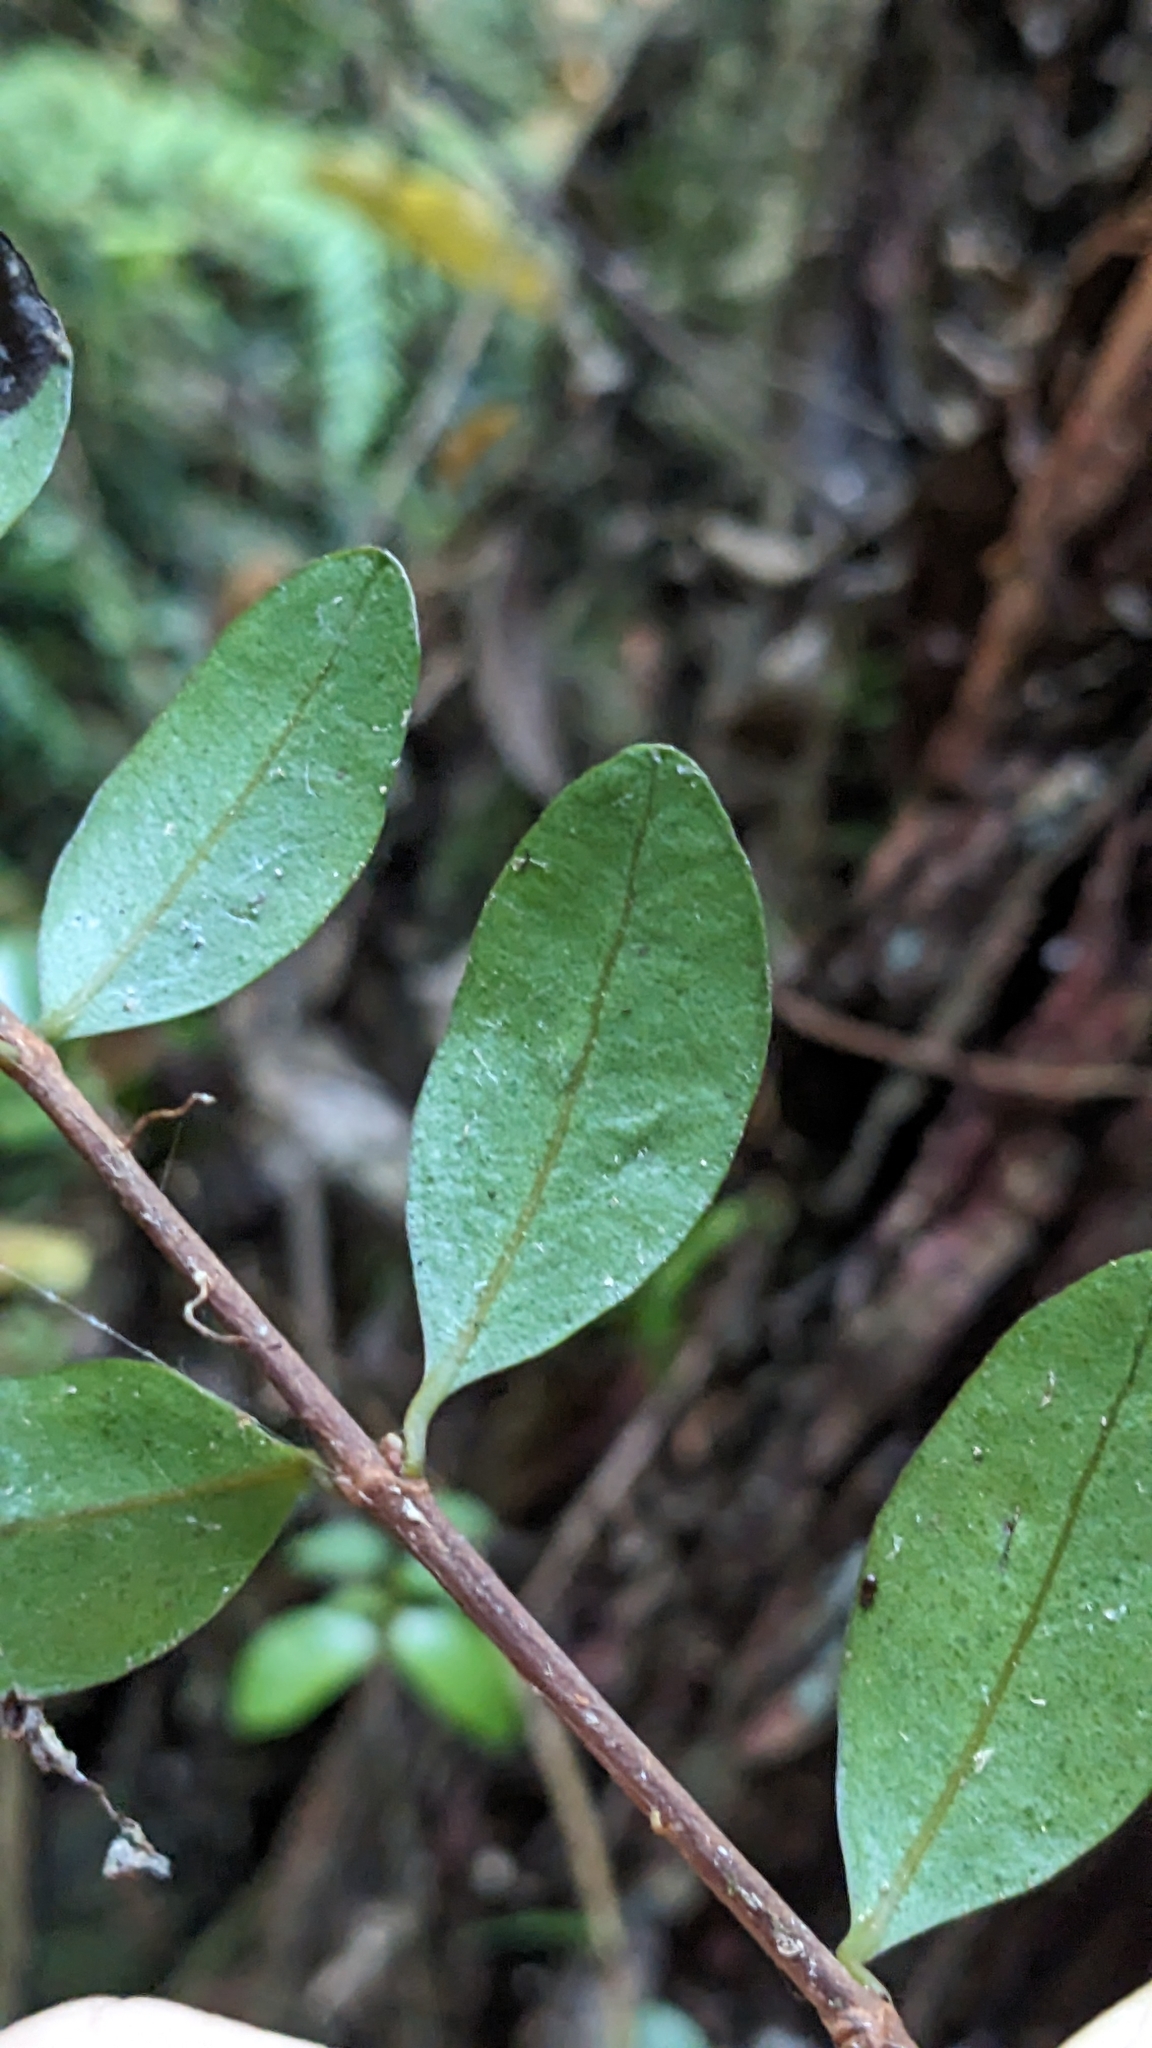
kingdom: Plantae
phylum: Tracheophyta
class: Magnoliopsida
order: Myrtales
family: Myrtaceae
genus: Metrosideros
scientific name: Metrosideros fulgens
